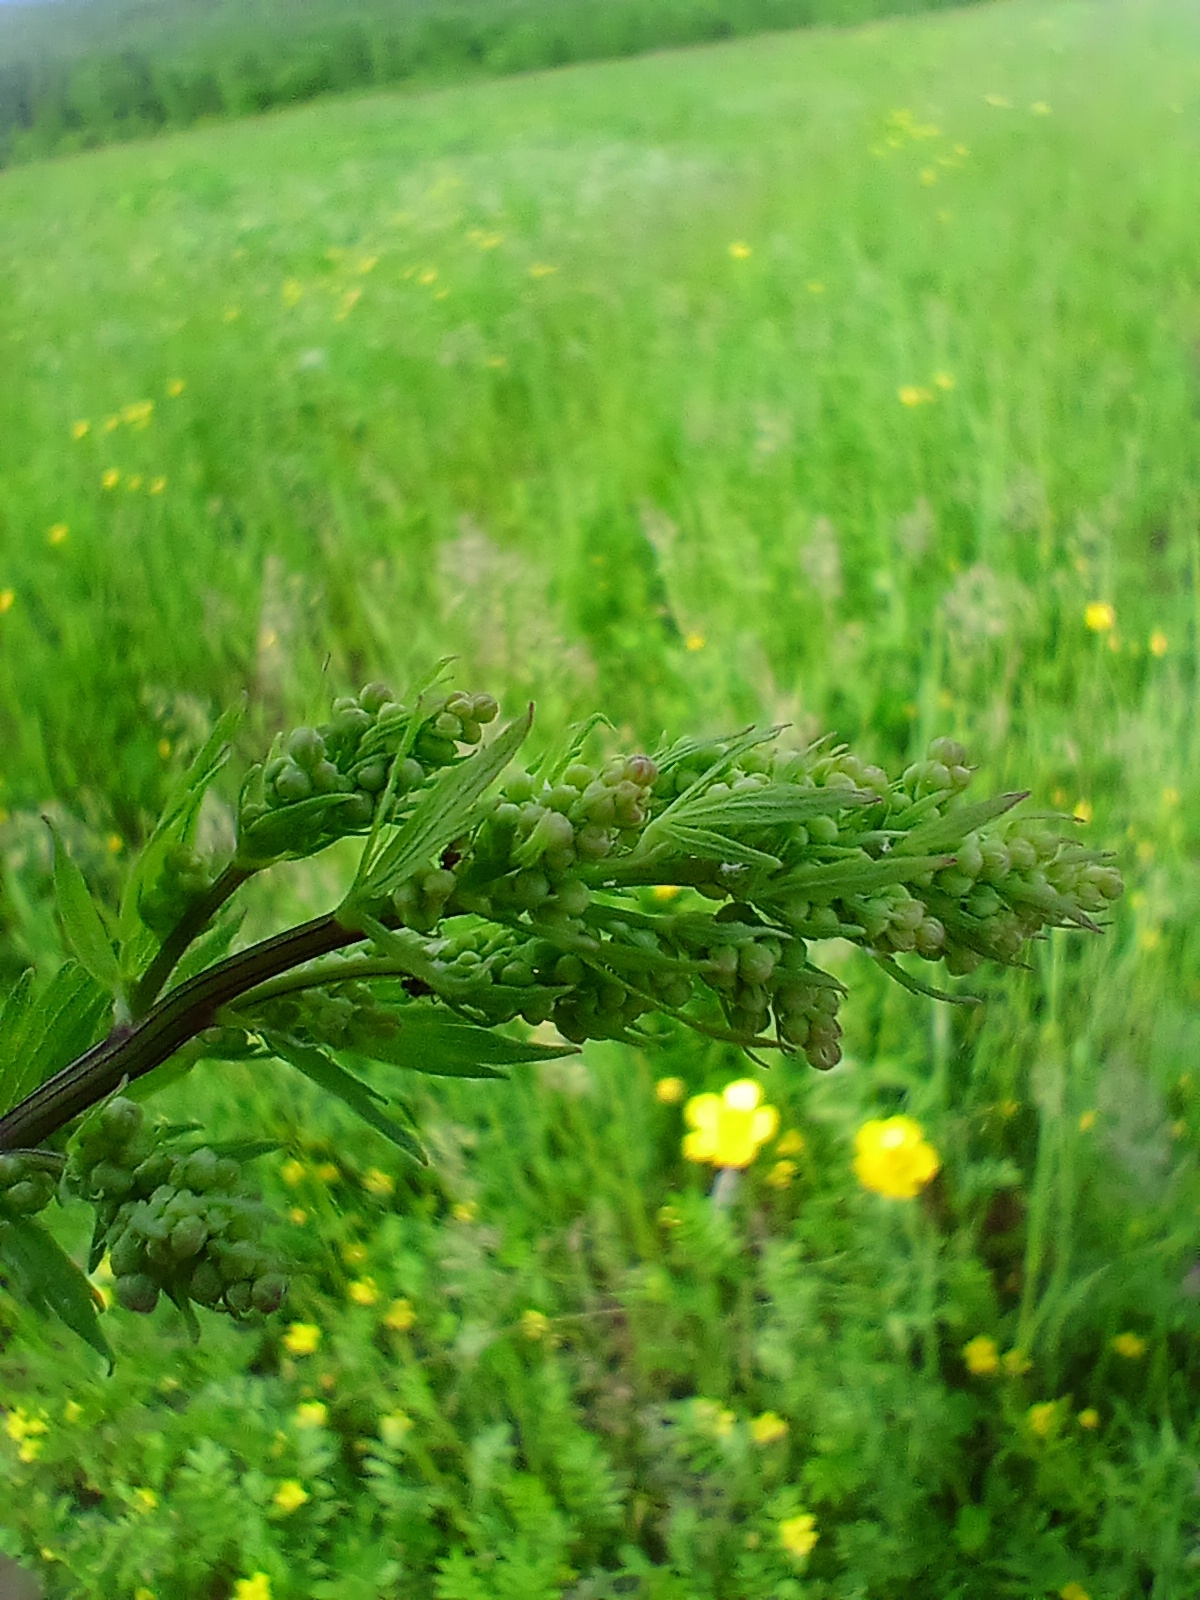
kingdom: Plantae
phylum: Tracheophyta
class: Magnoliopsida
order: Ranunculales
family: Ranunculaceae
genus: Thalictrum
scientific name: Thalictrum simplex
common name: Small meadow-rue
